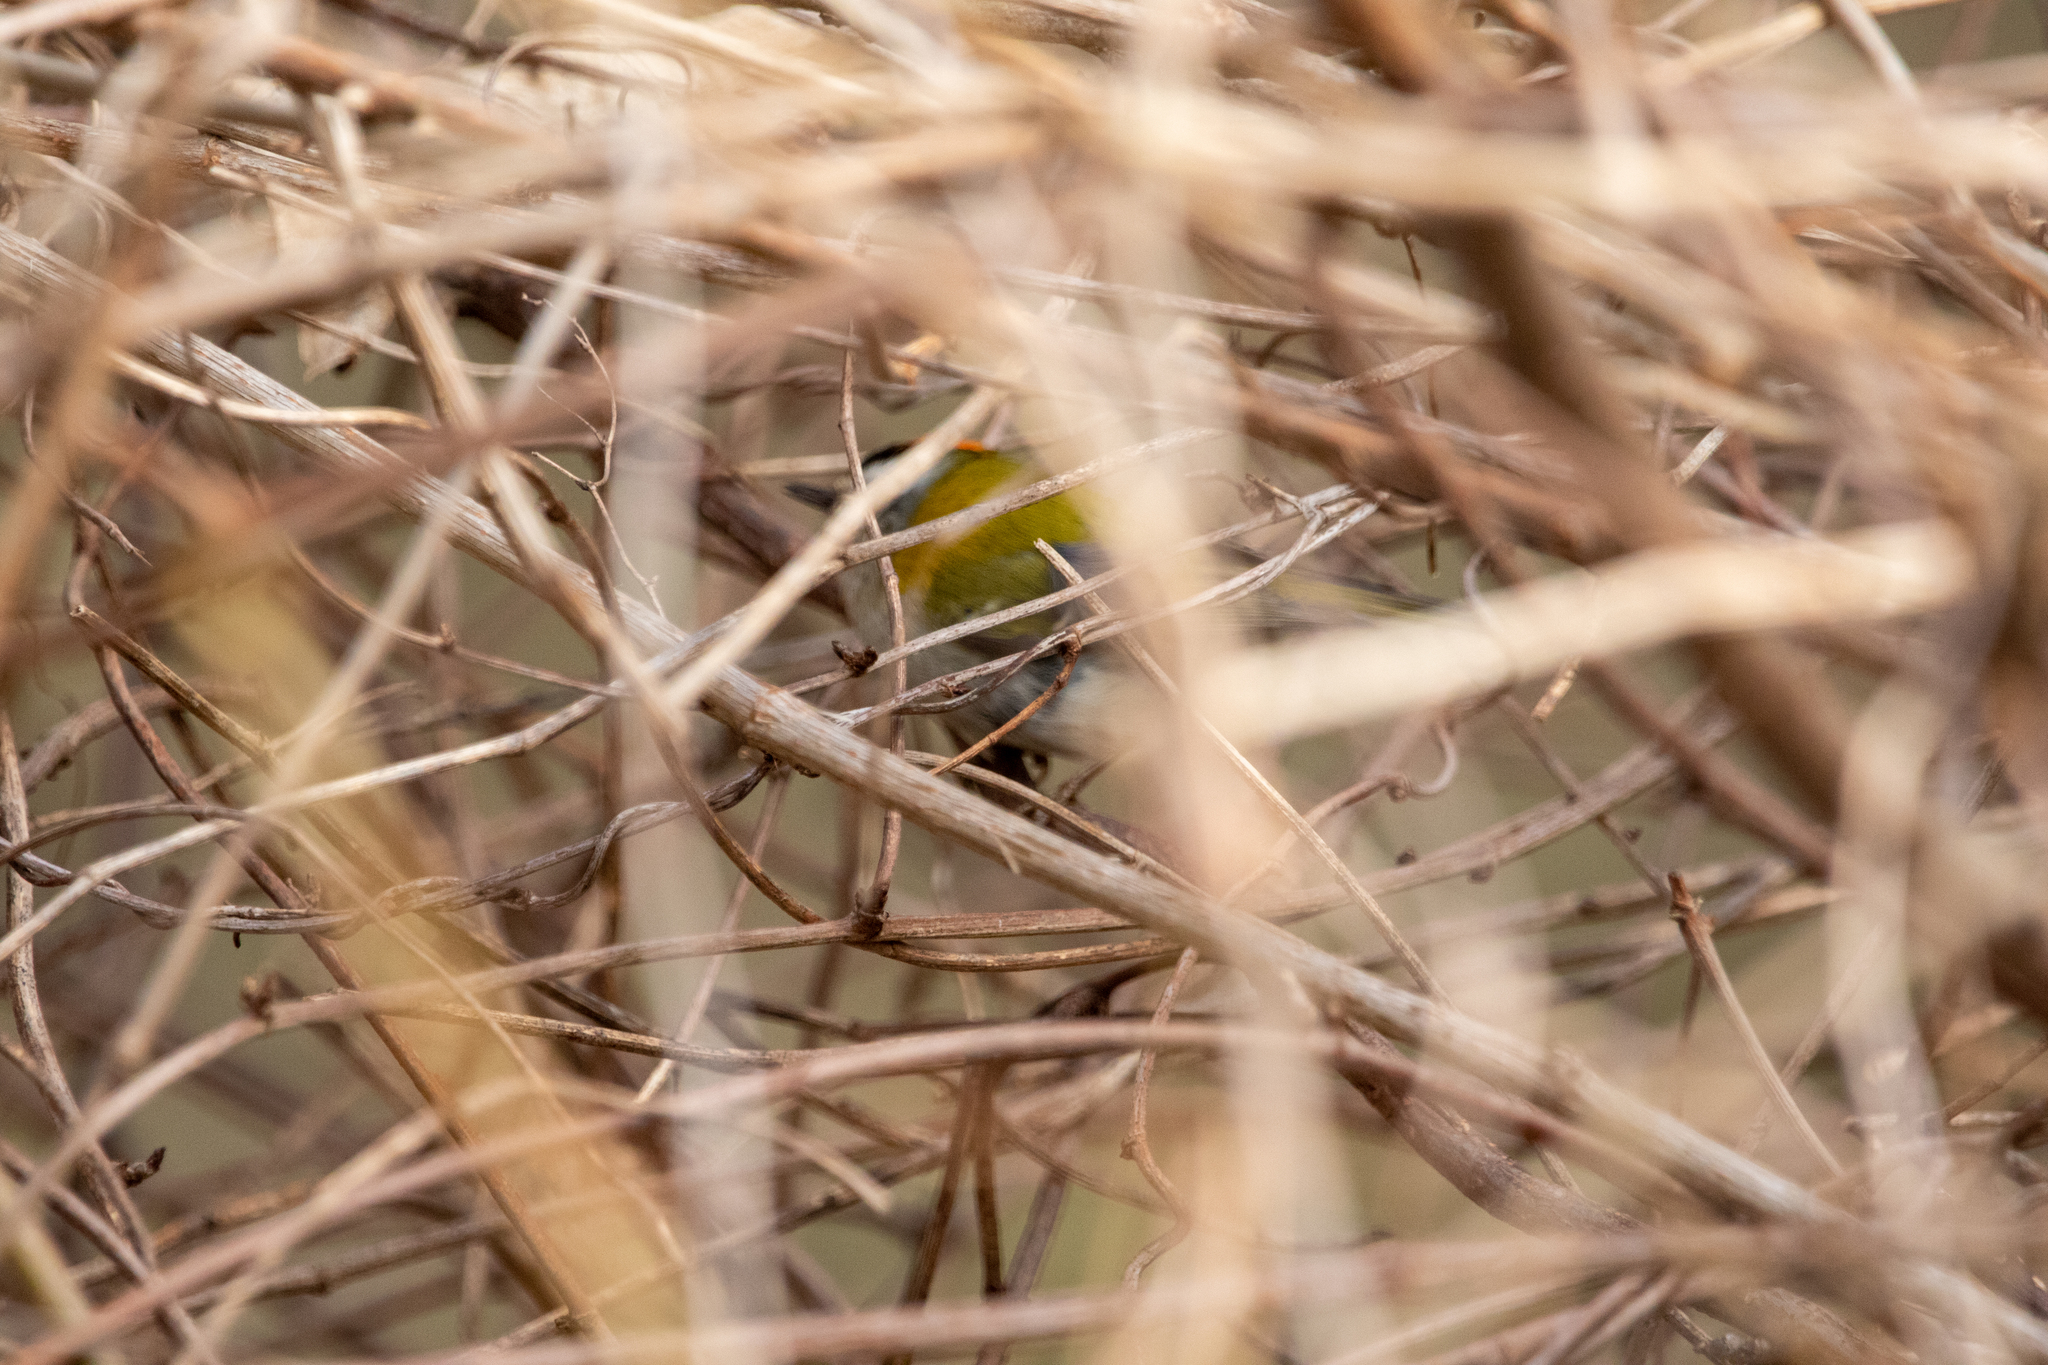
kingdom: Animalia
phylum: Chordata
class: Aves
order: Passeriformes
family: Regulidae
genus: Regulus
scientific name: Regulus ignicapilla
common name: Firecrest
